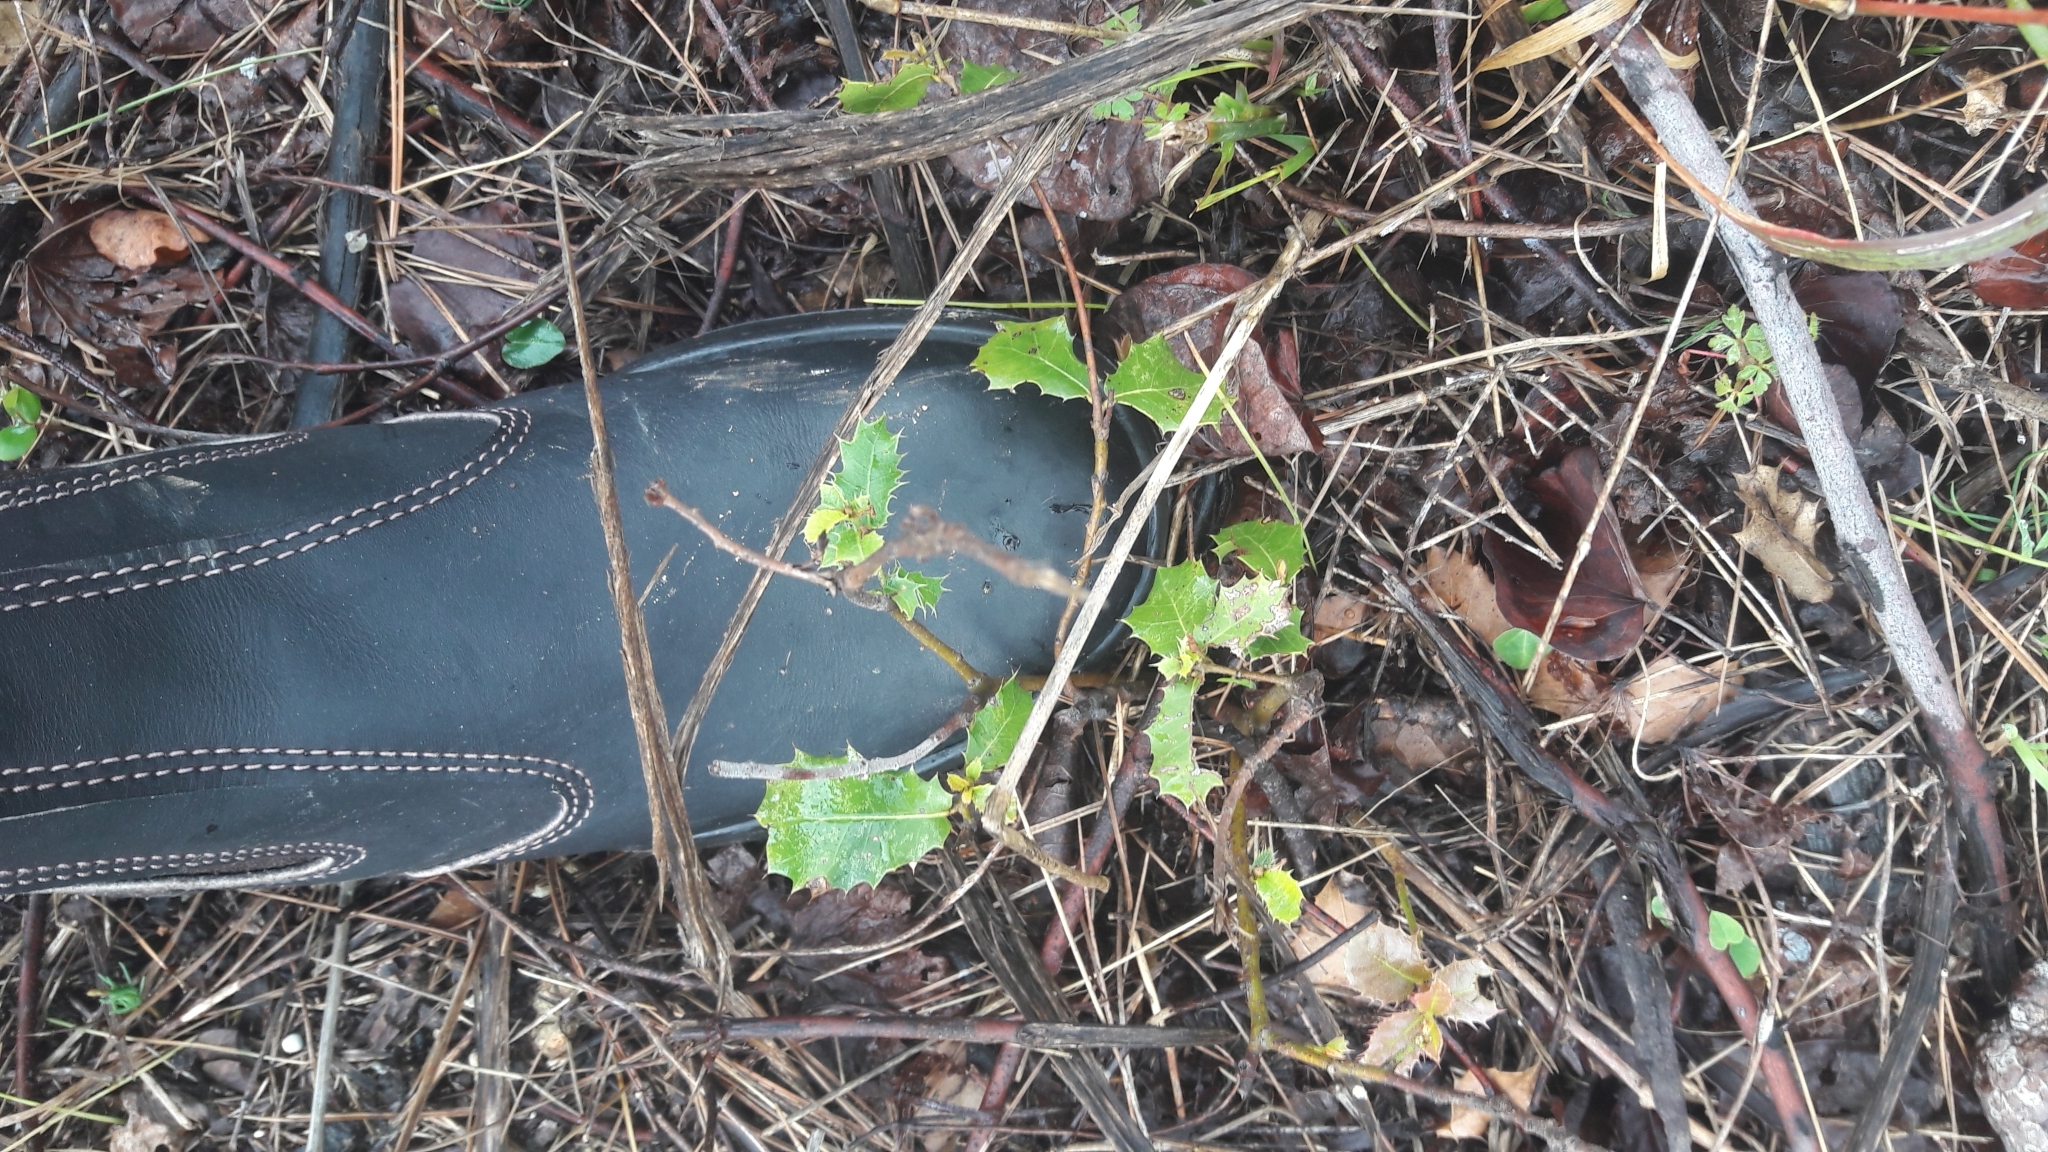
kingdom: Plantae
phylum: Tracheophyta
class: Magnoliopsida
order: Fagales
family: Fagaceae
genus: Quercus
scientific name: Quercus coccifera
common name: Kermes oak
